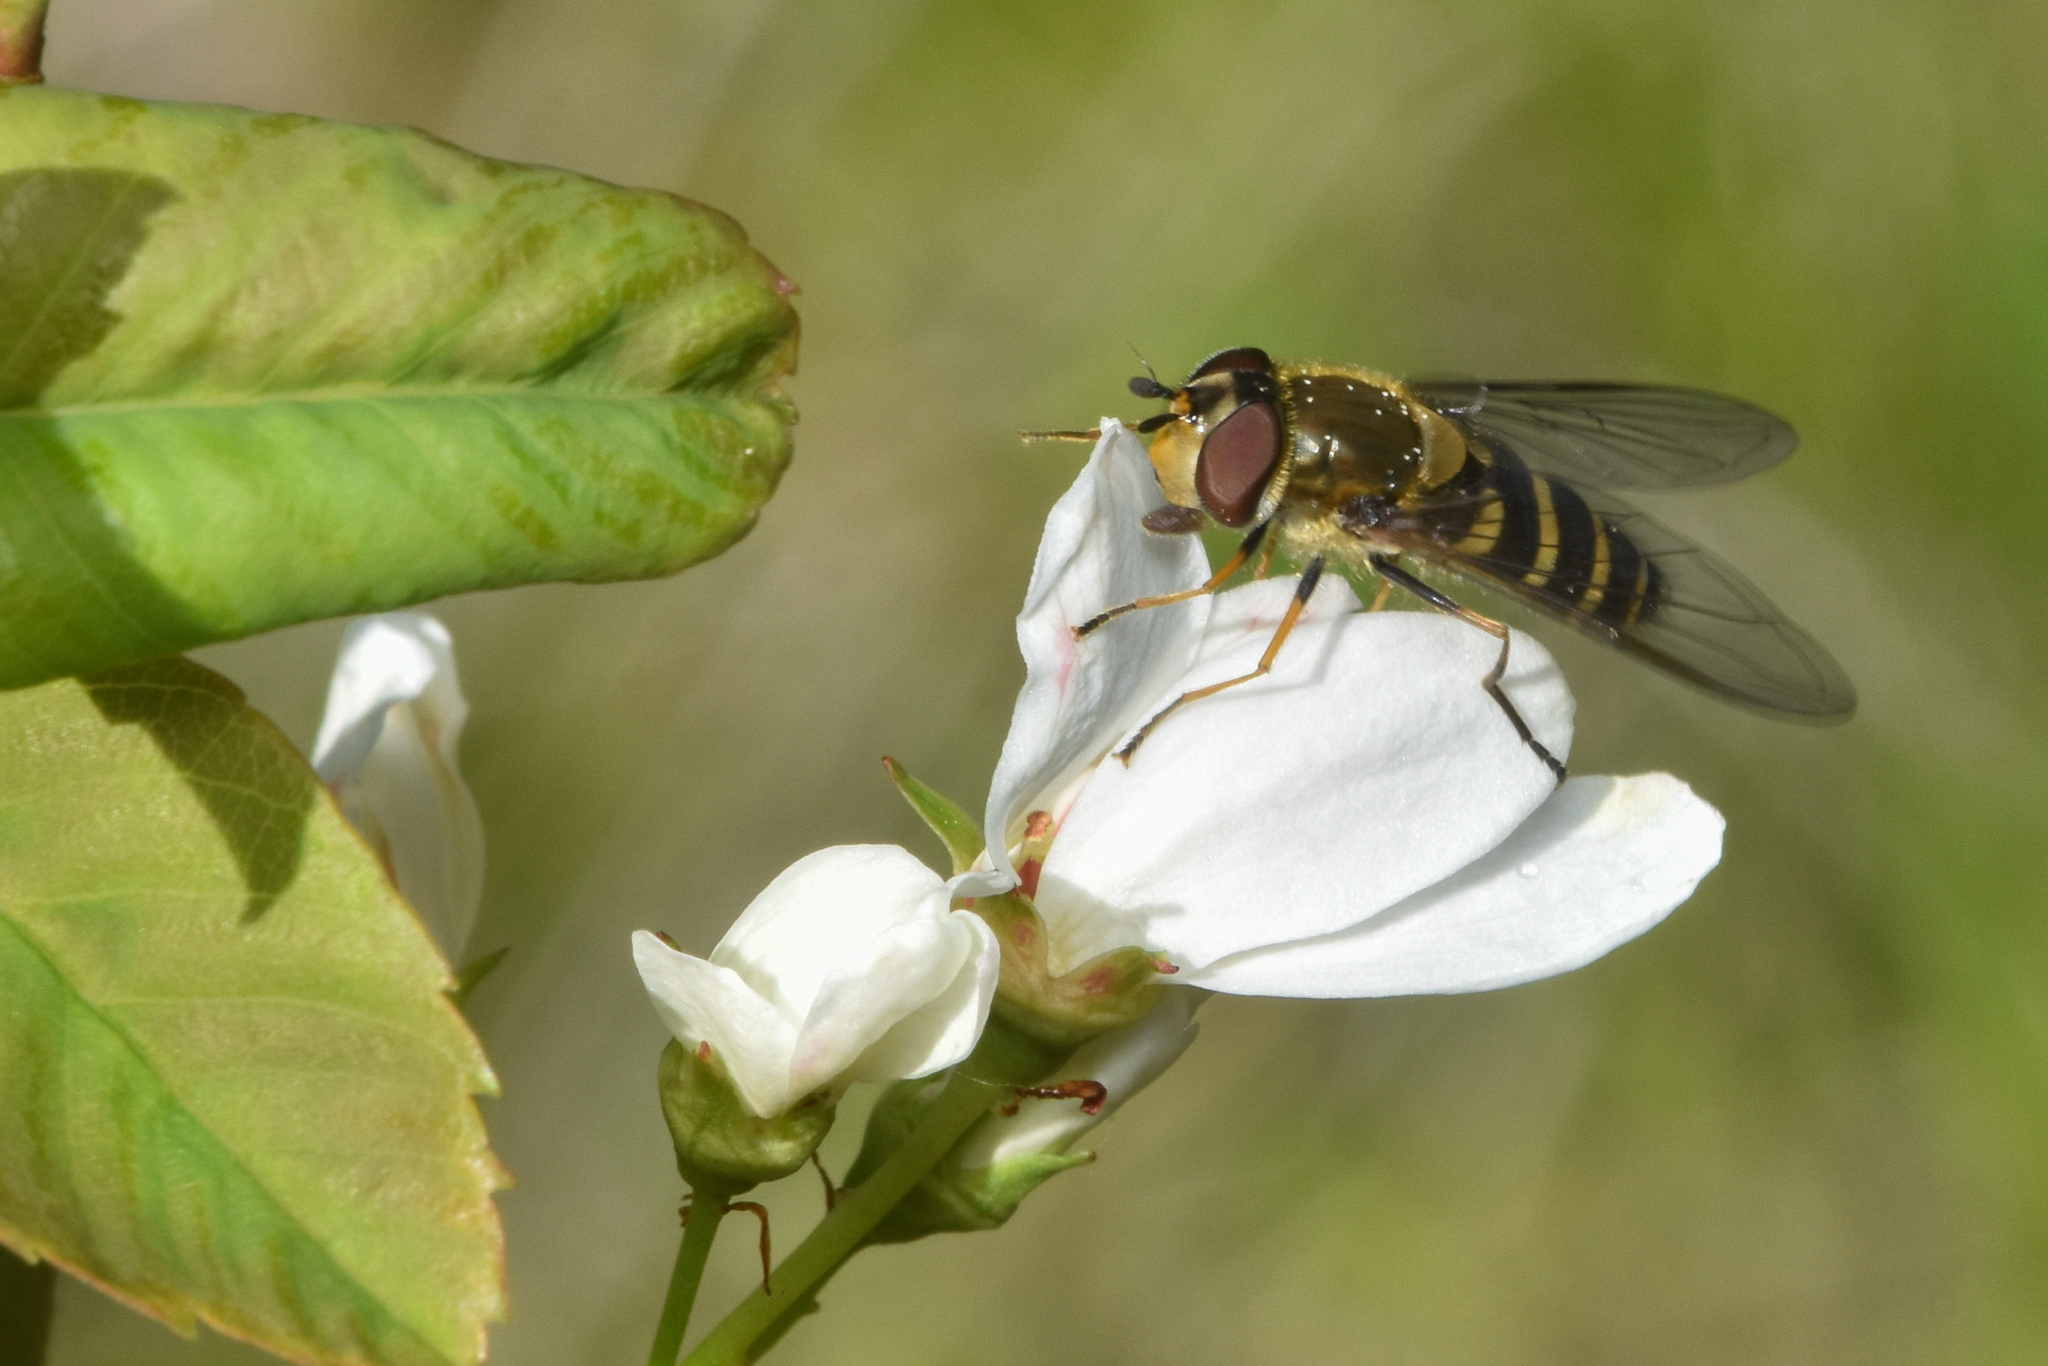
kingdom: Animalia
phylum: Arthropoda
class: Insecta
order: Diptera
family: Syrphidae
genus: Syrphus
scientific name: Syrphus torvus
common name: Hairy-eyed flower fly
